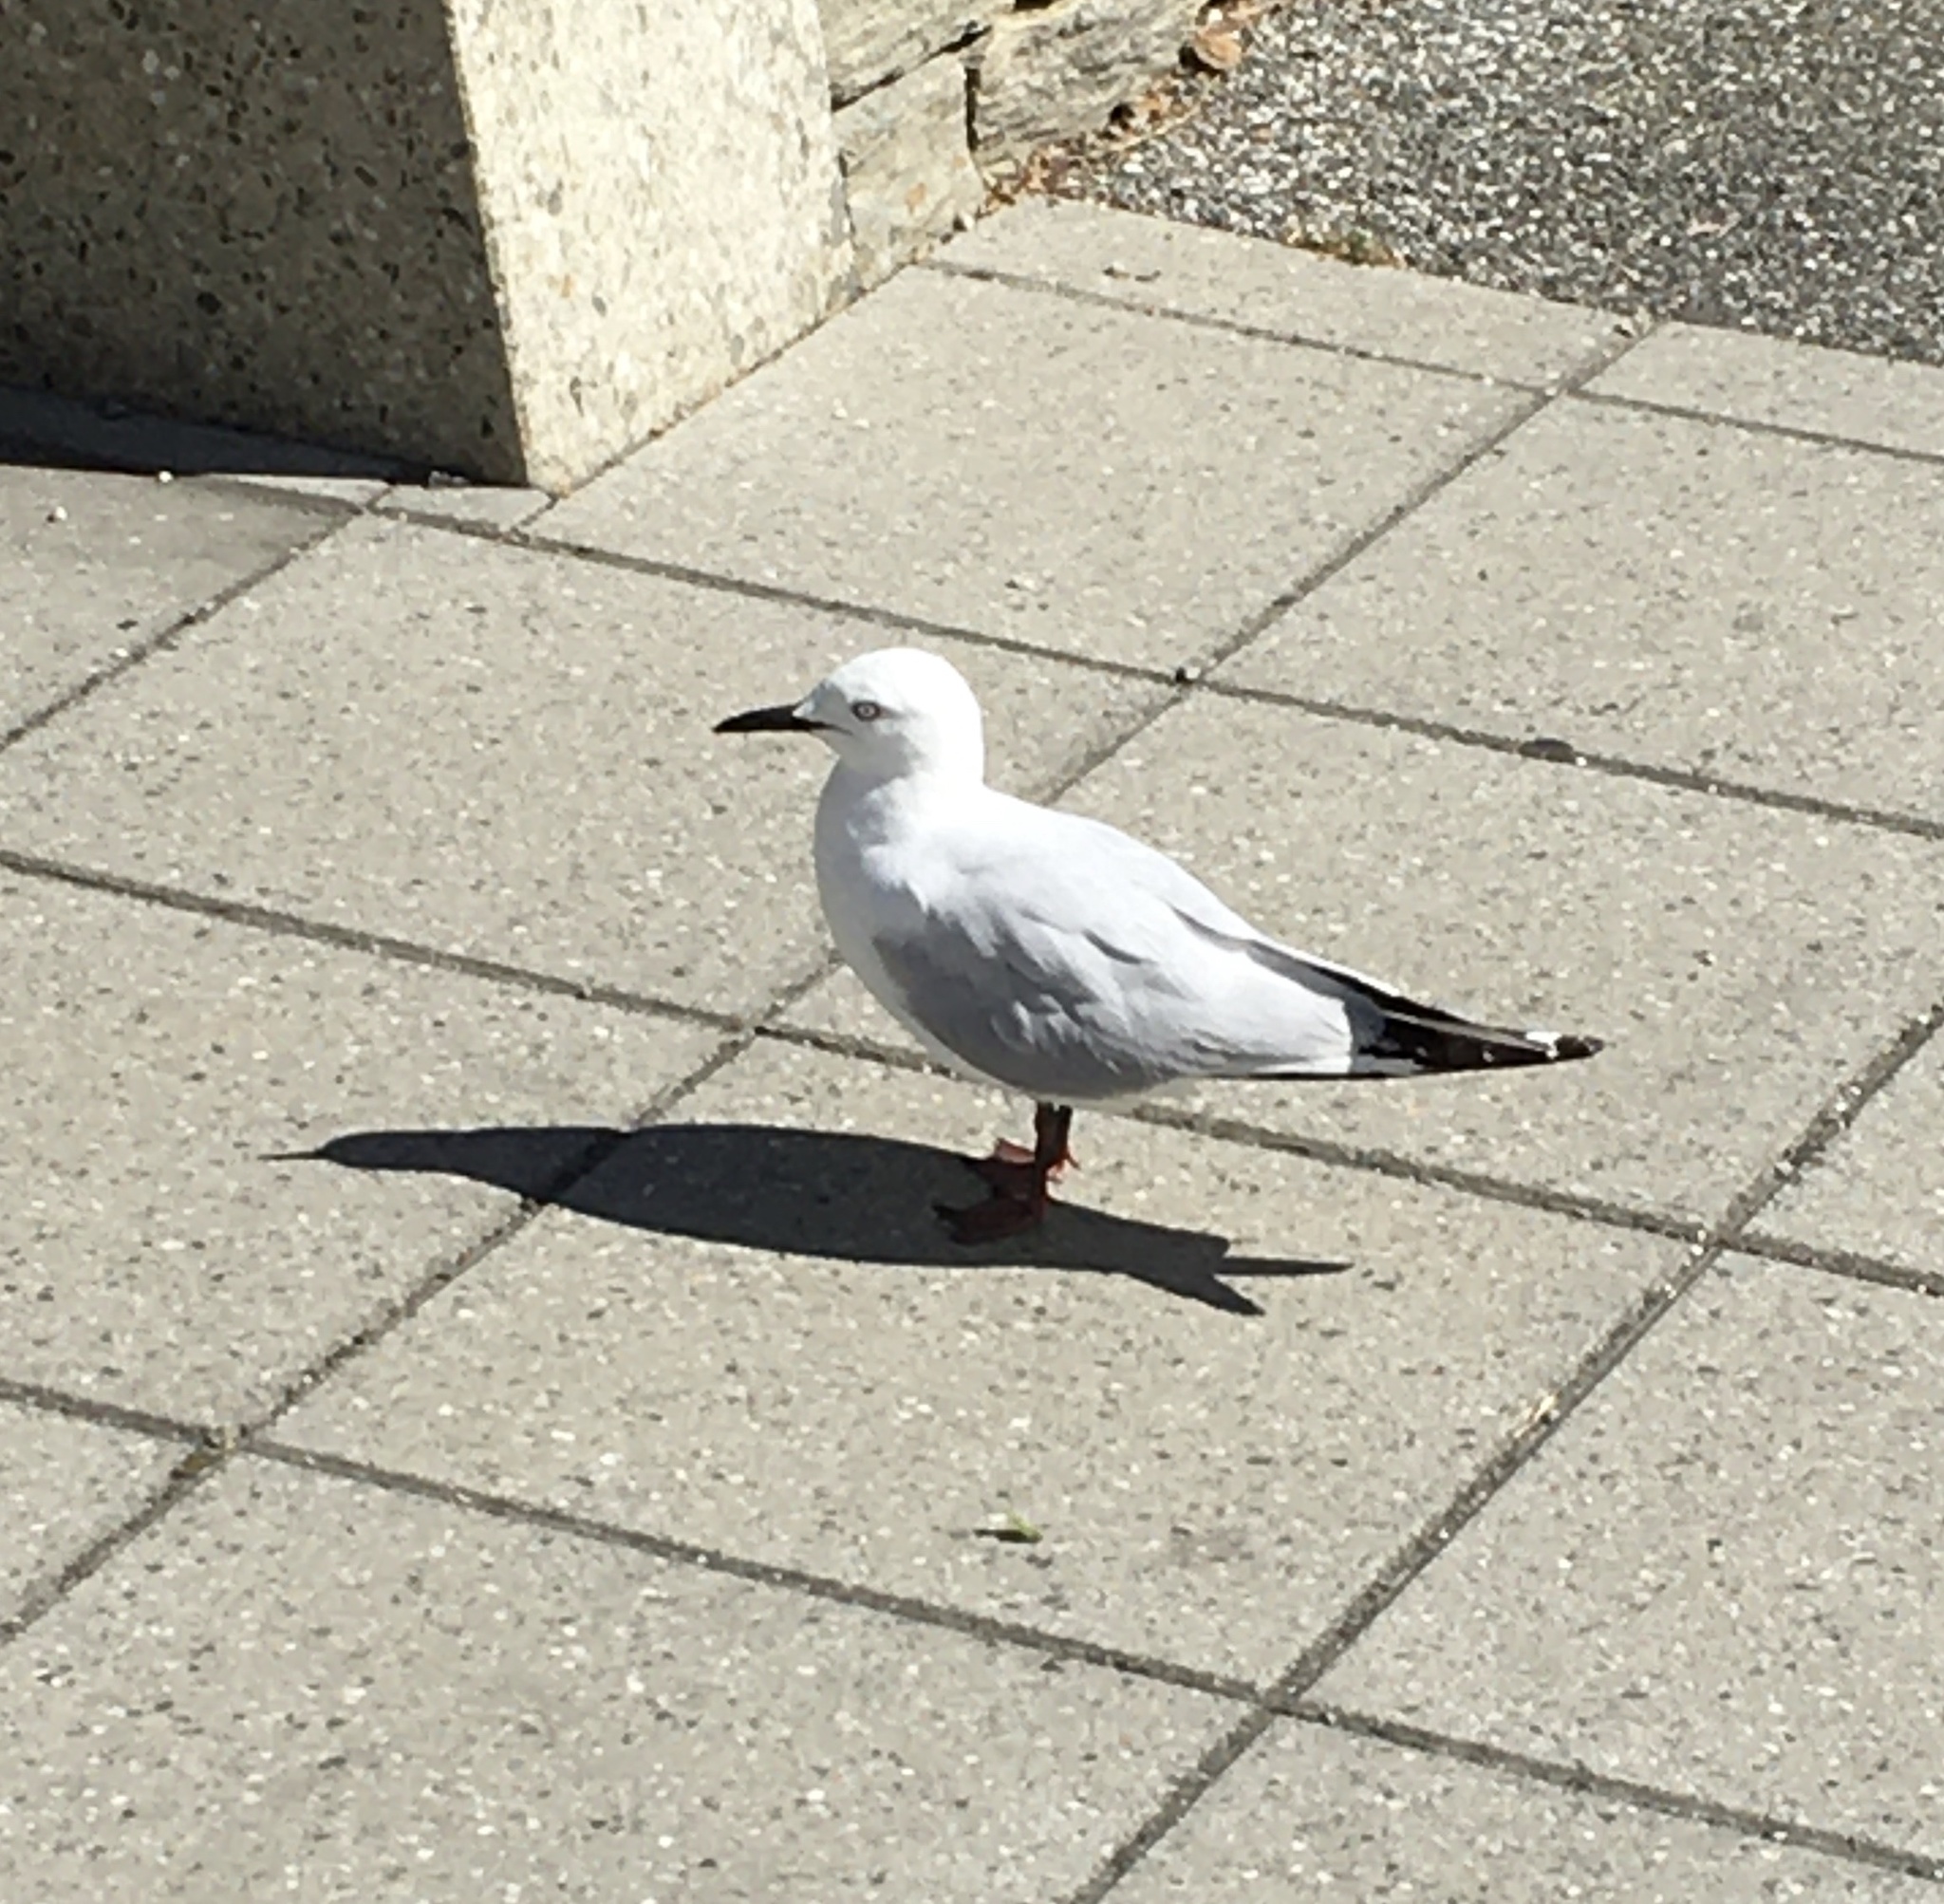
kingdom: Animalia
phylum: Chordata
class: Aves
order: Charadriiformes
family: Laridae
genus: Chroicocephalus
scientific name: Chroicocephalus bulleri
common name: Black-billed gull
